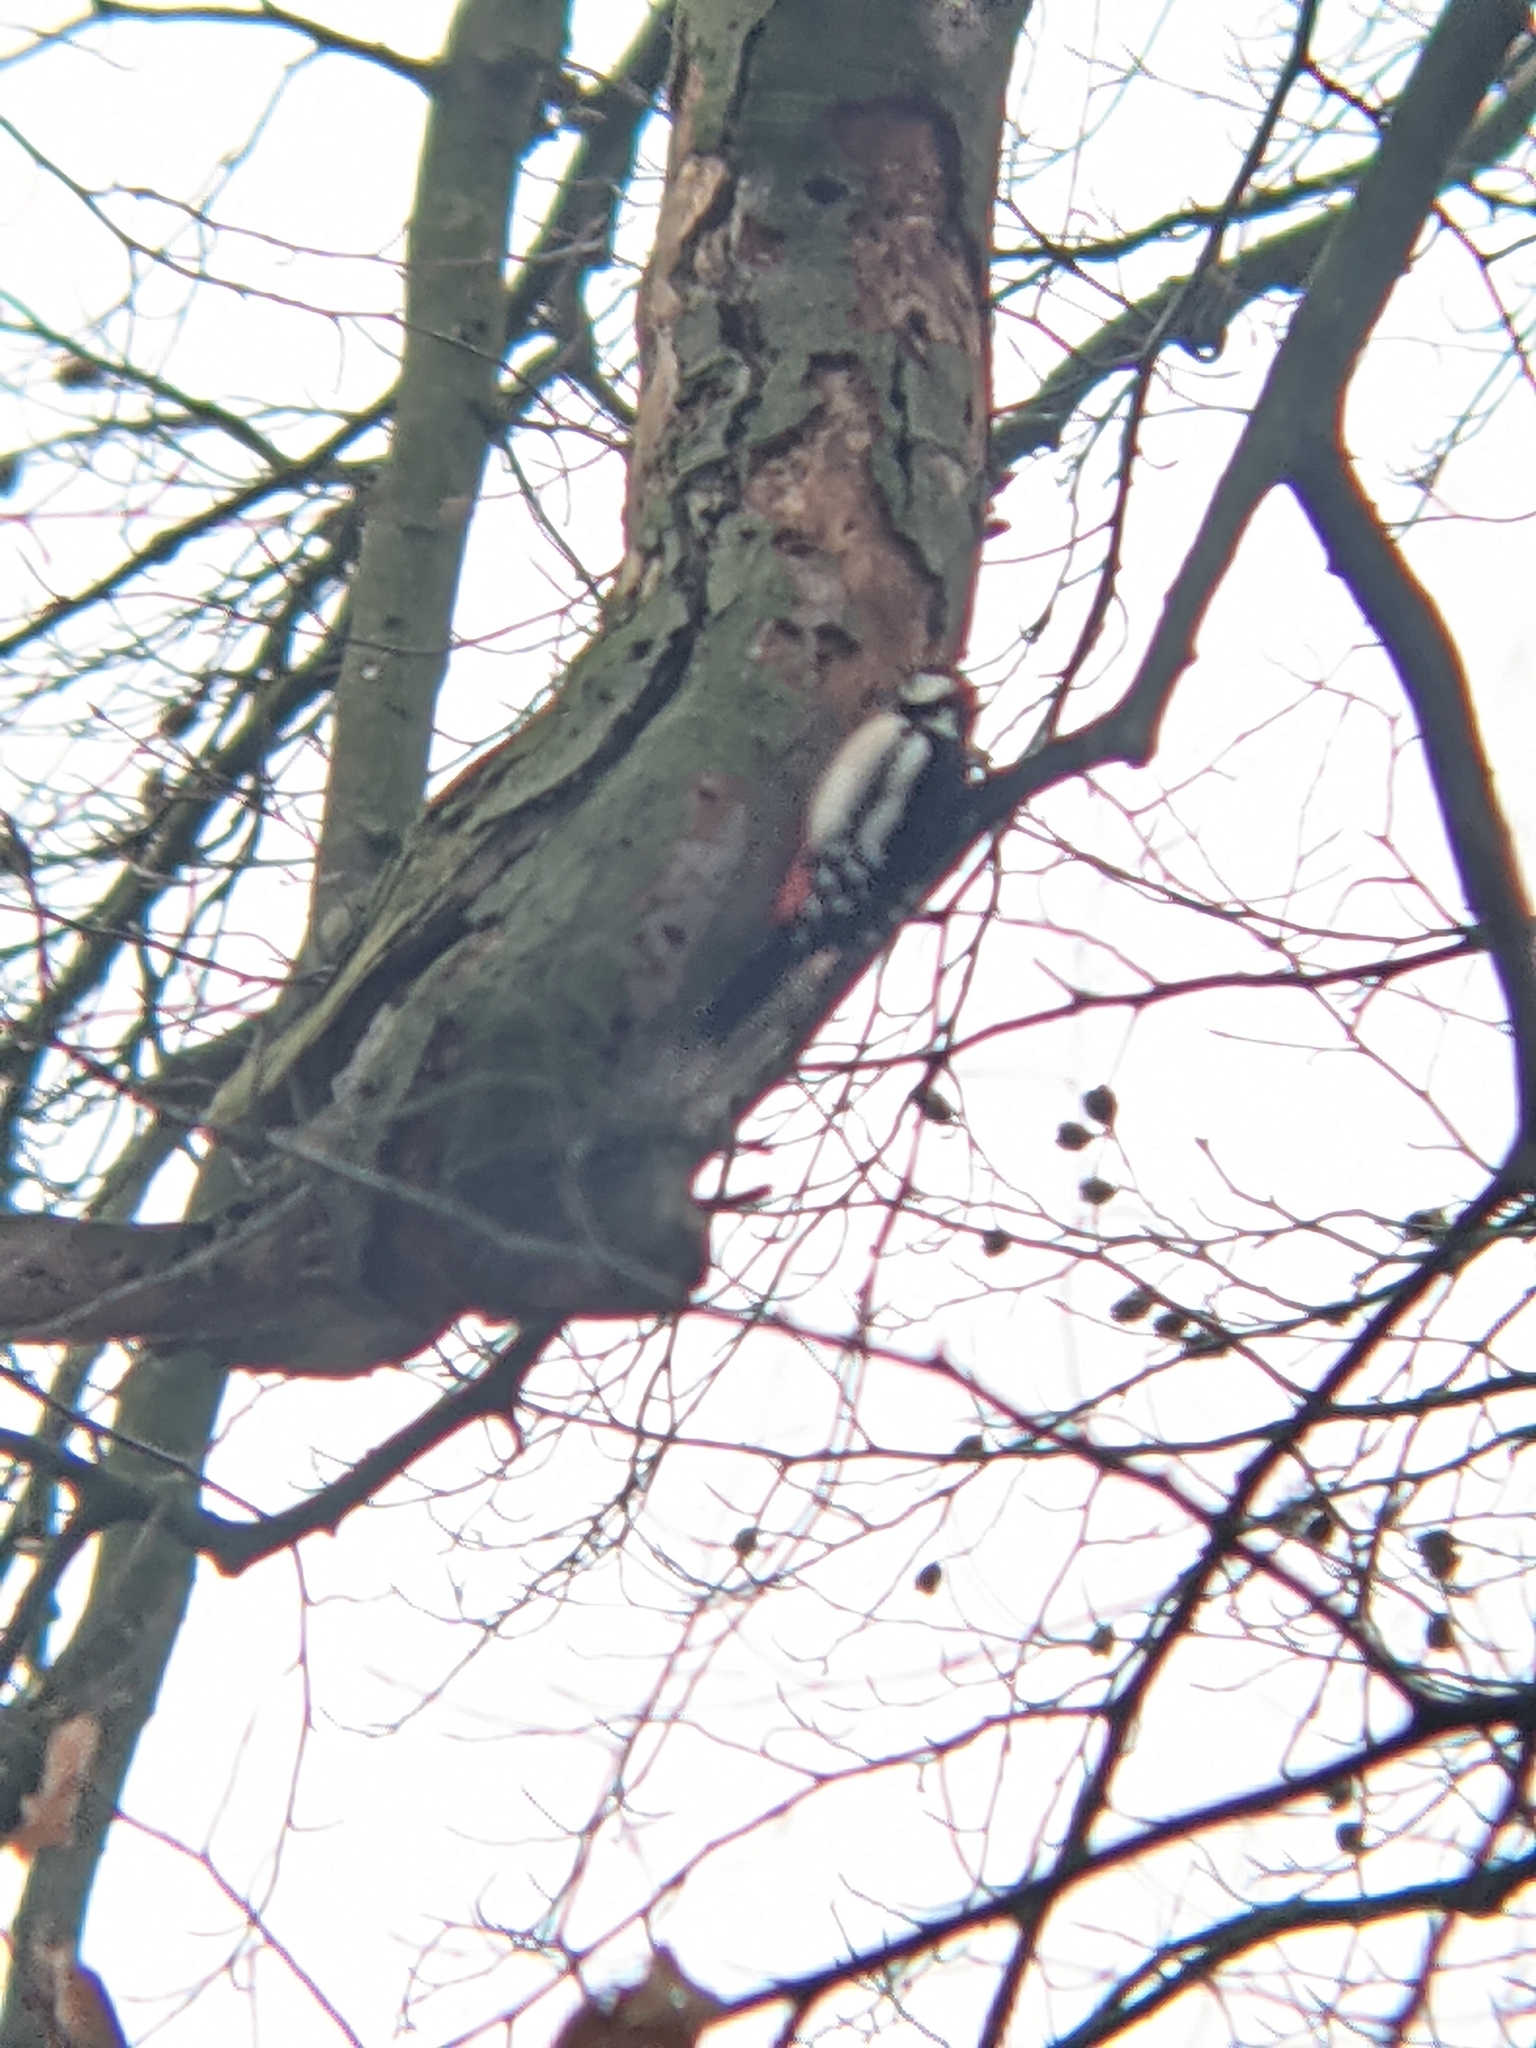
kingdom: Animalia
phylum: Chordata
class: Aves
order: Piciformes
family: Picidae
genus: Dendrocopos
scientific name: Dendrocopos major
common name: Great spotted woodpecker
